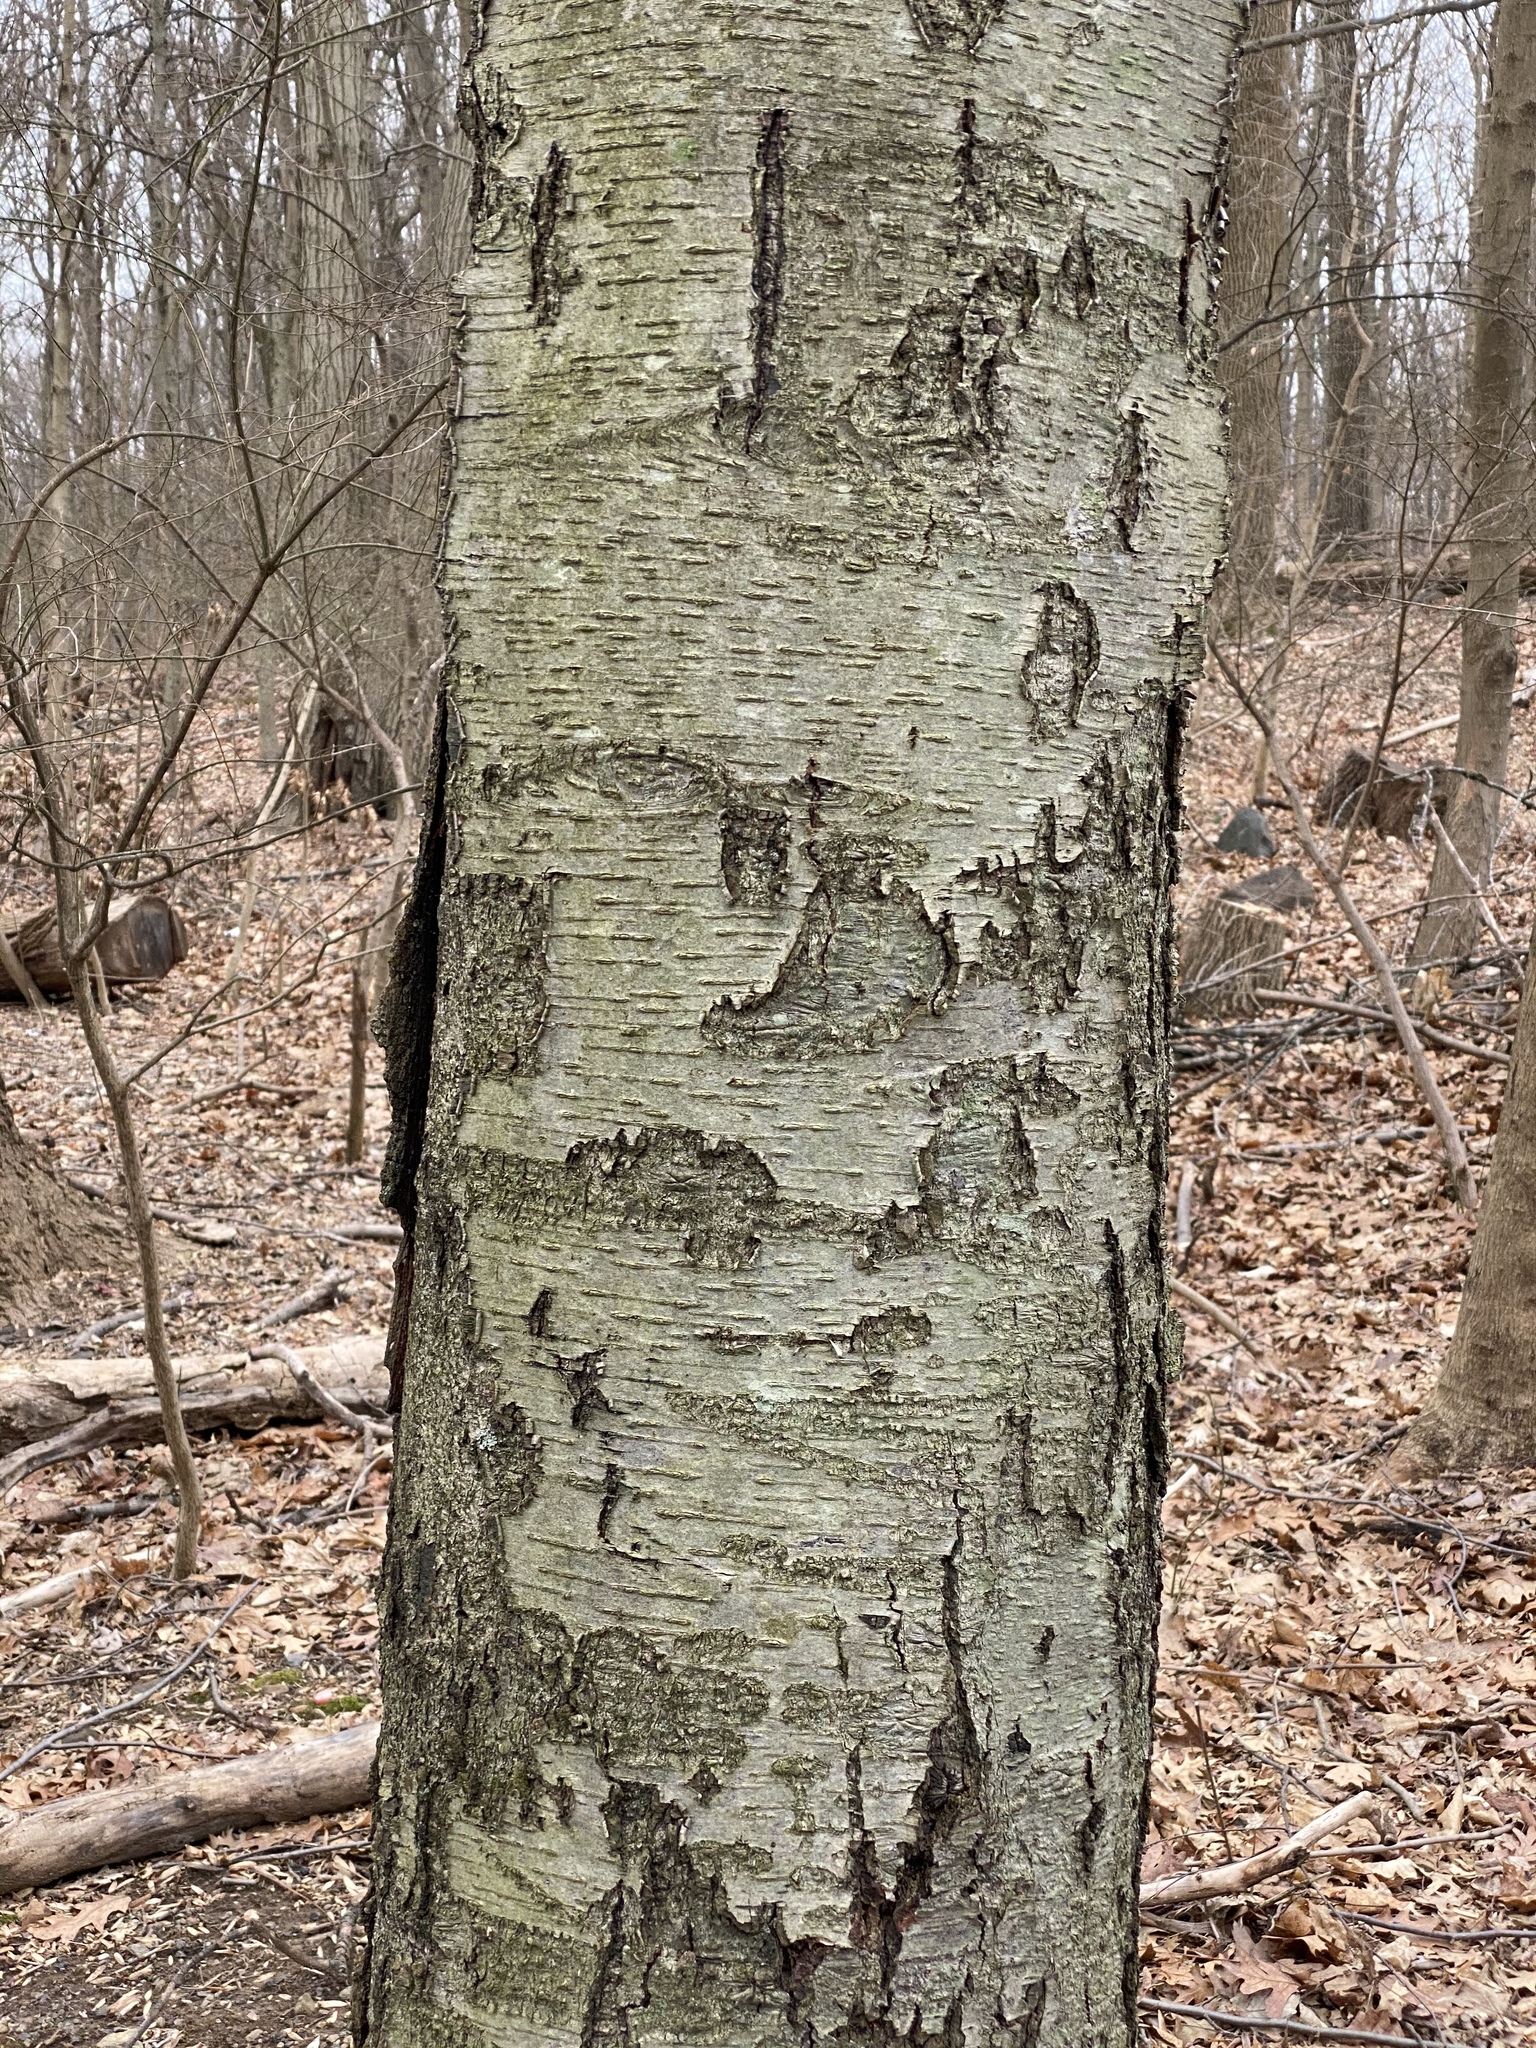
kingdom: Plantae
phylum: Tracheophyta
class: Magnoliopsida
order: Fagales
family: Betulaceae
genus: Betula
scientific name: Betula lenta
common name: Black birch
